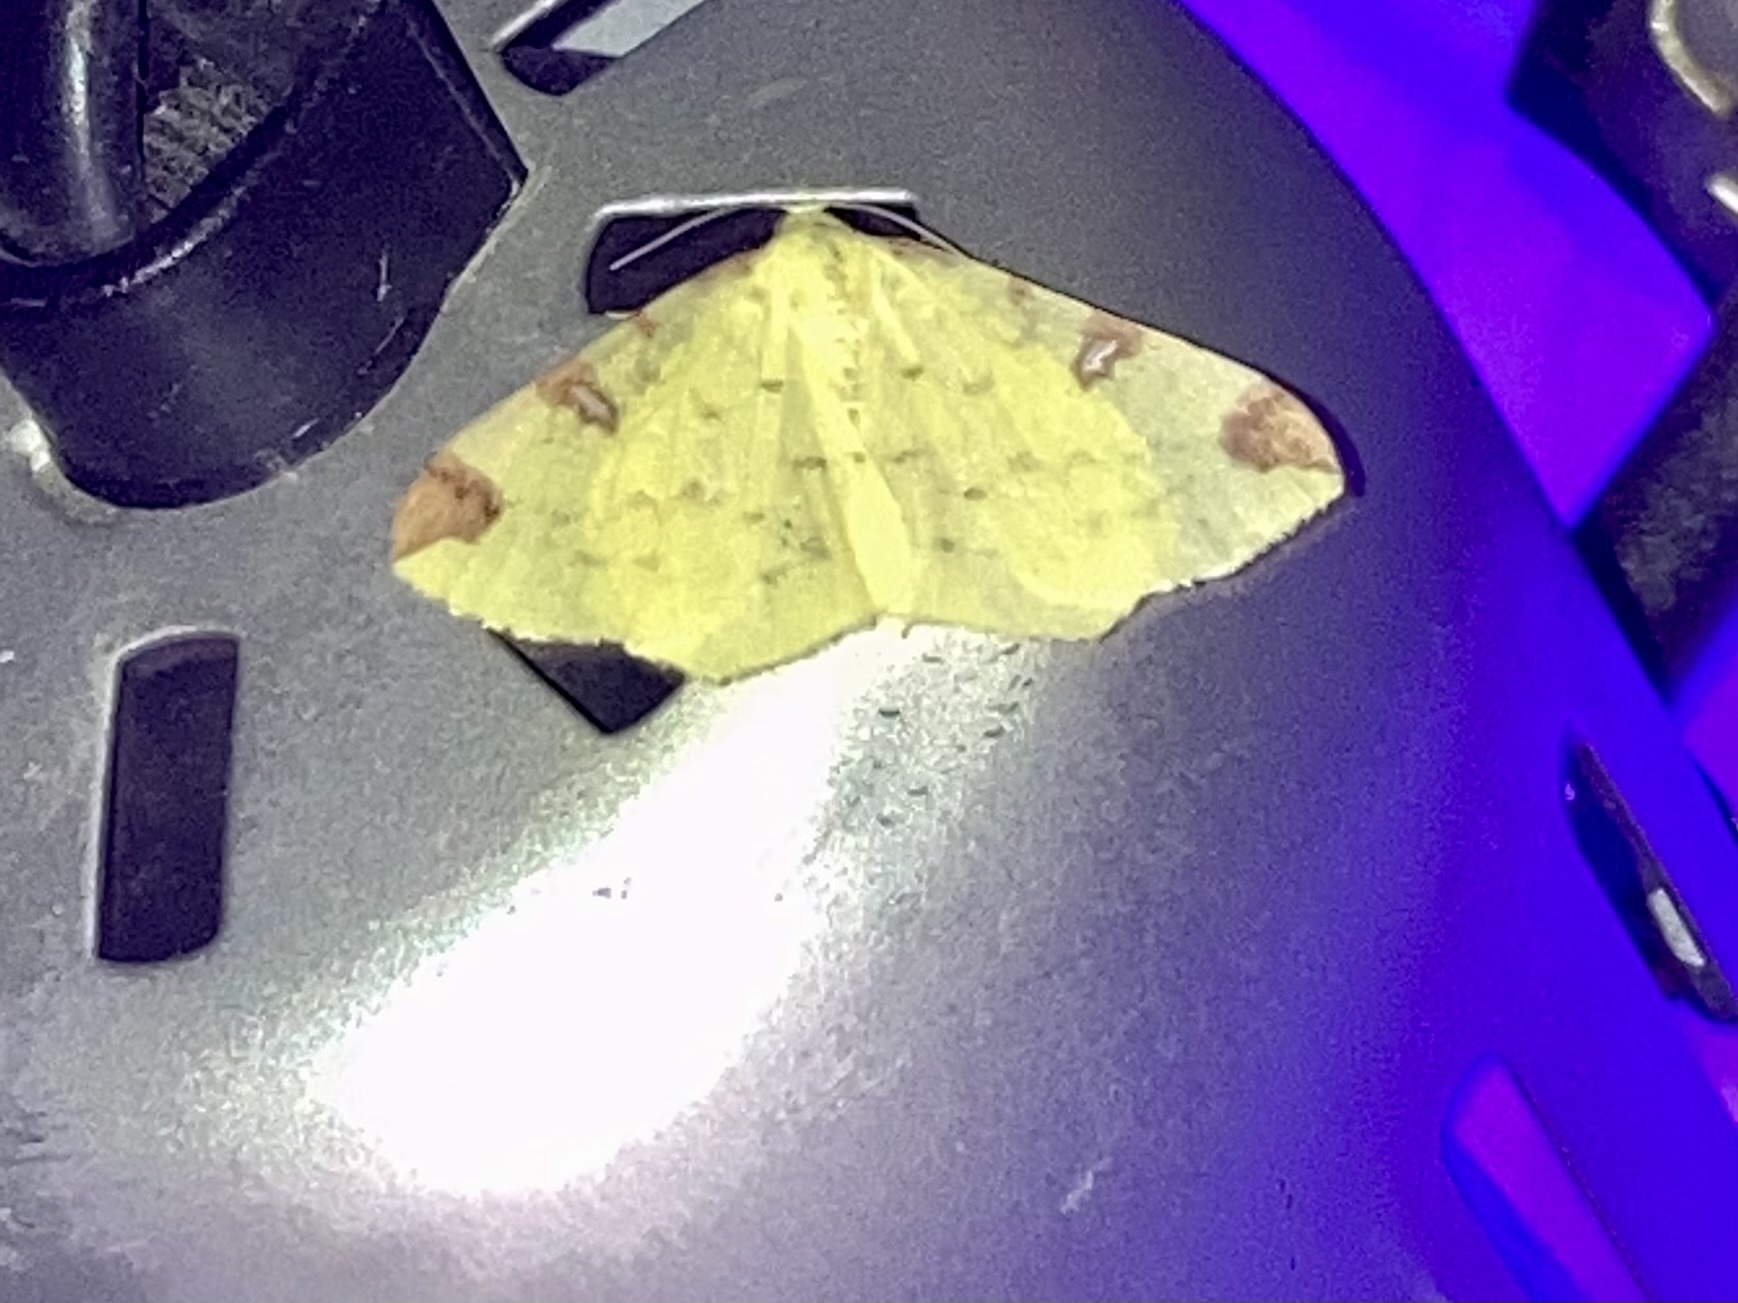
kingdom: Animalia
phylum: Arthropoda
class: Insecta
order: Lepidoptera
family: Geometridae
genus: Opisthograptis
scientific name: Opisthograptis luteolata
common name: Brimstone moth
